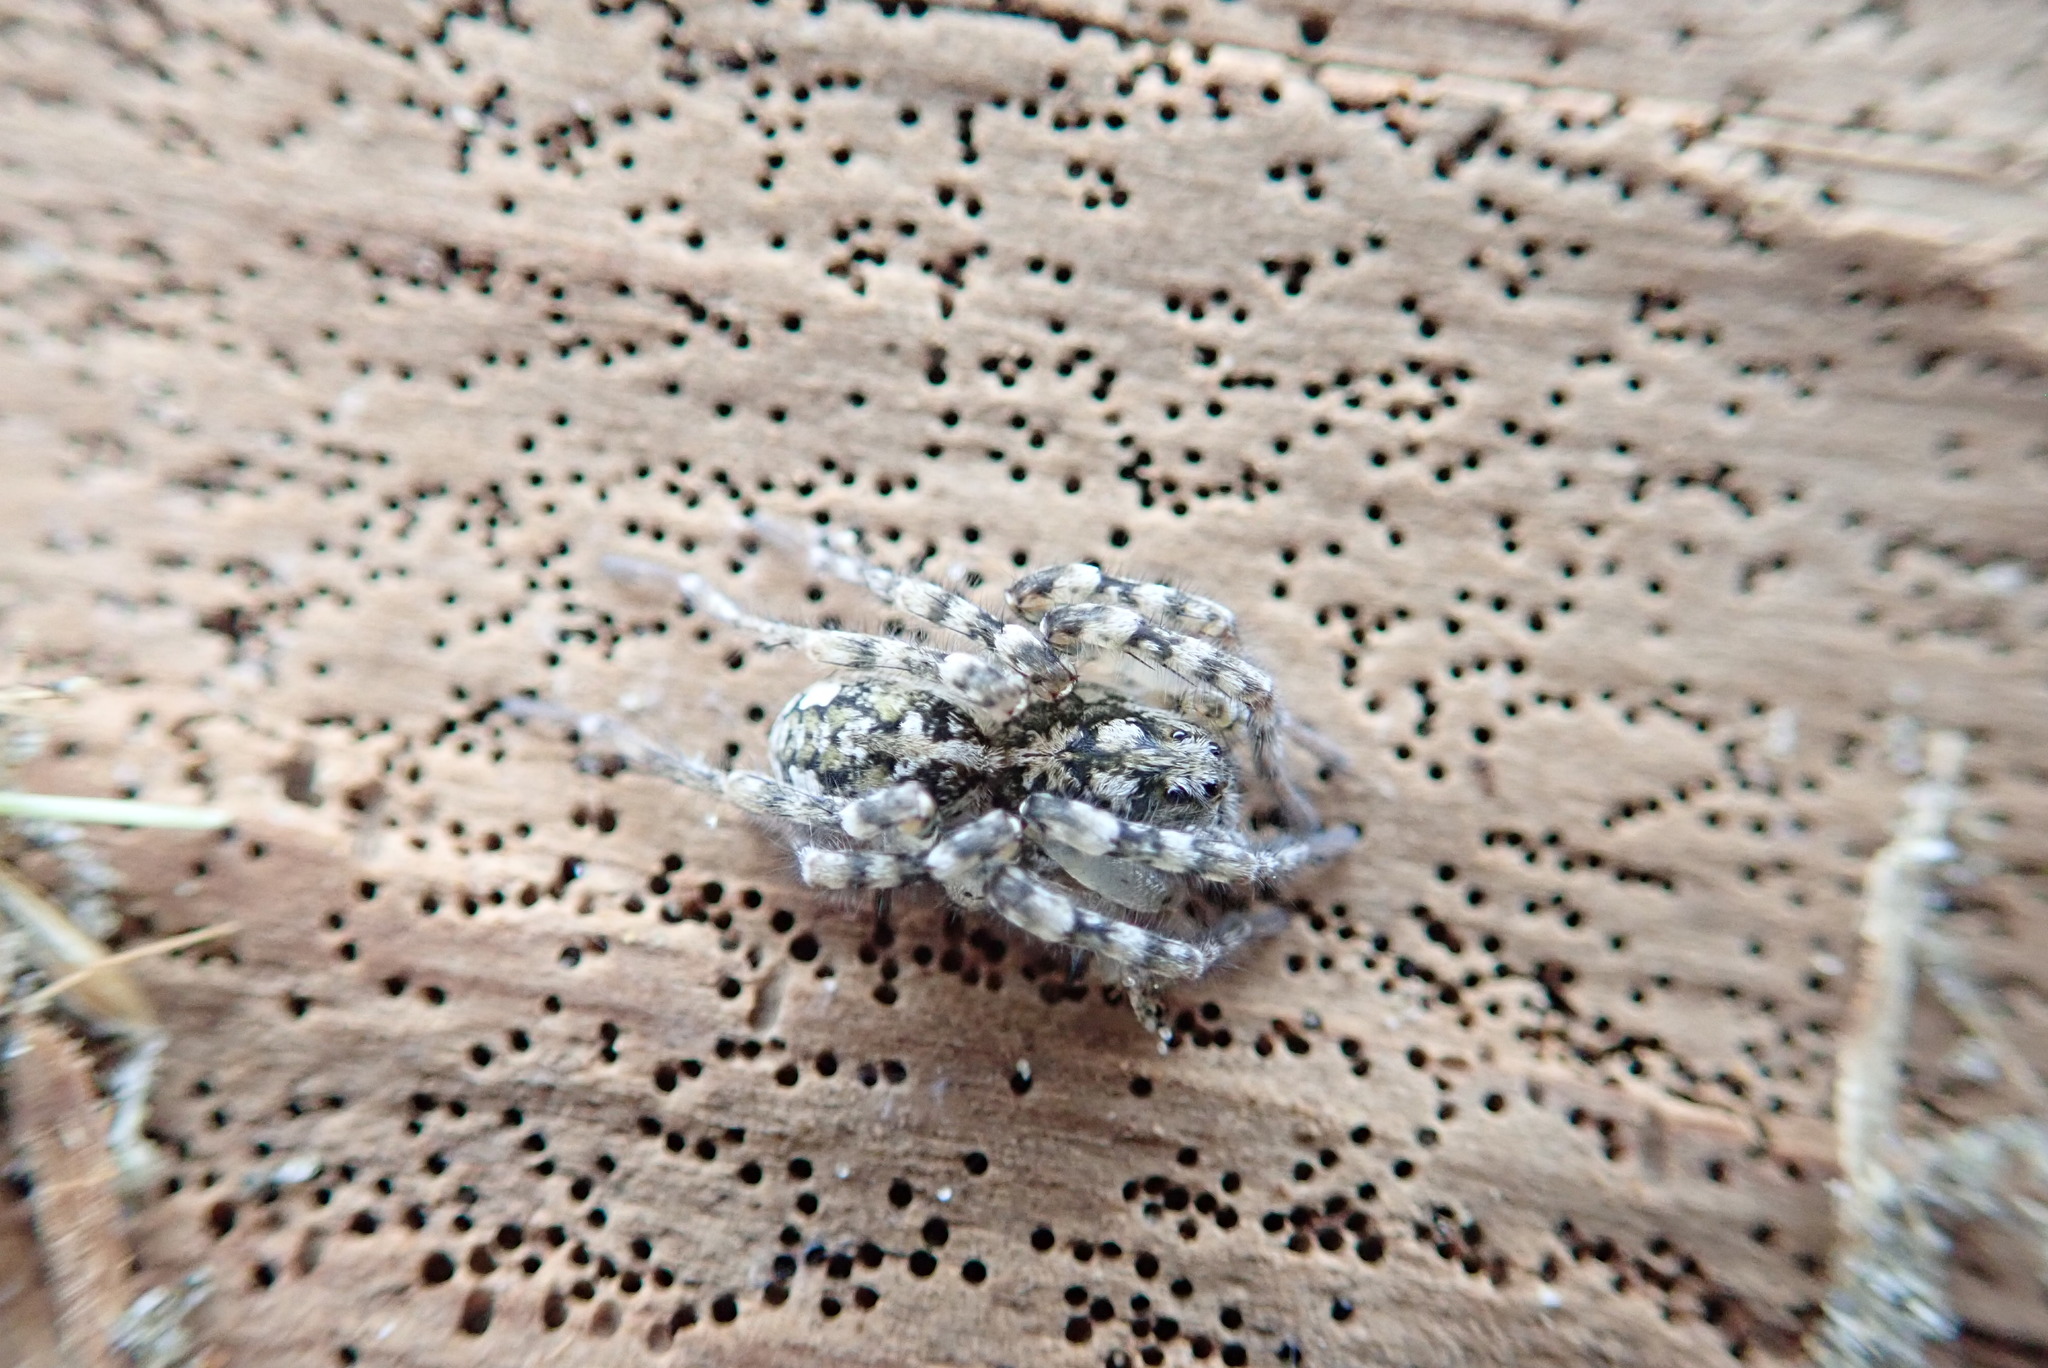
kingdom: Animalia
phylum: Arthropoda
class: Arachnida
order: Araneae
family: Lycosidae
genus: Anoteropsis
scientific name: Anoteropsis litoralis
